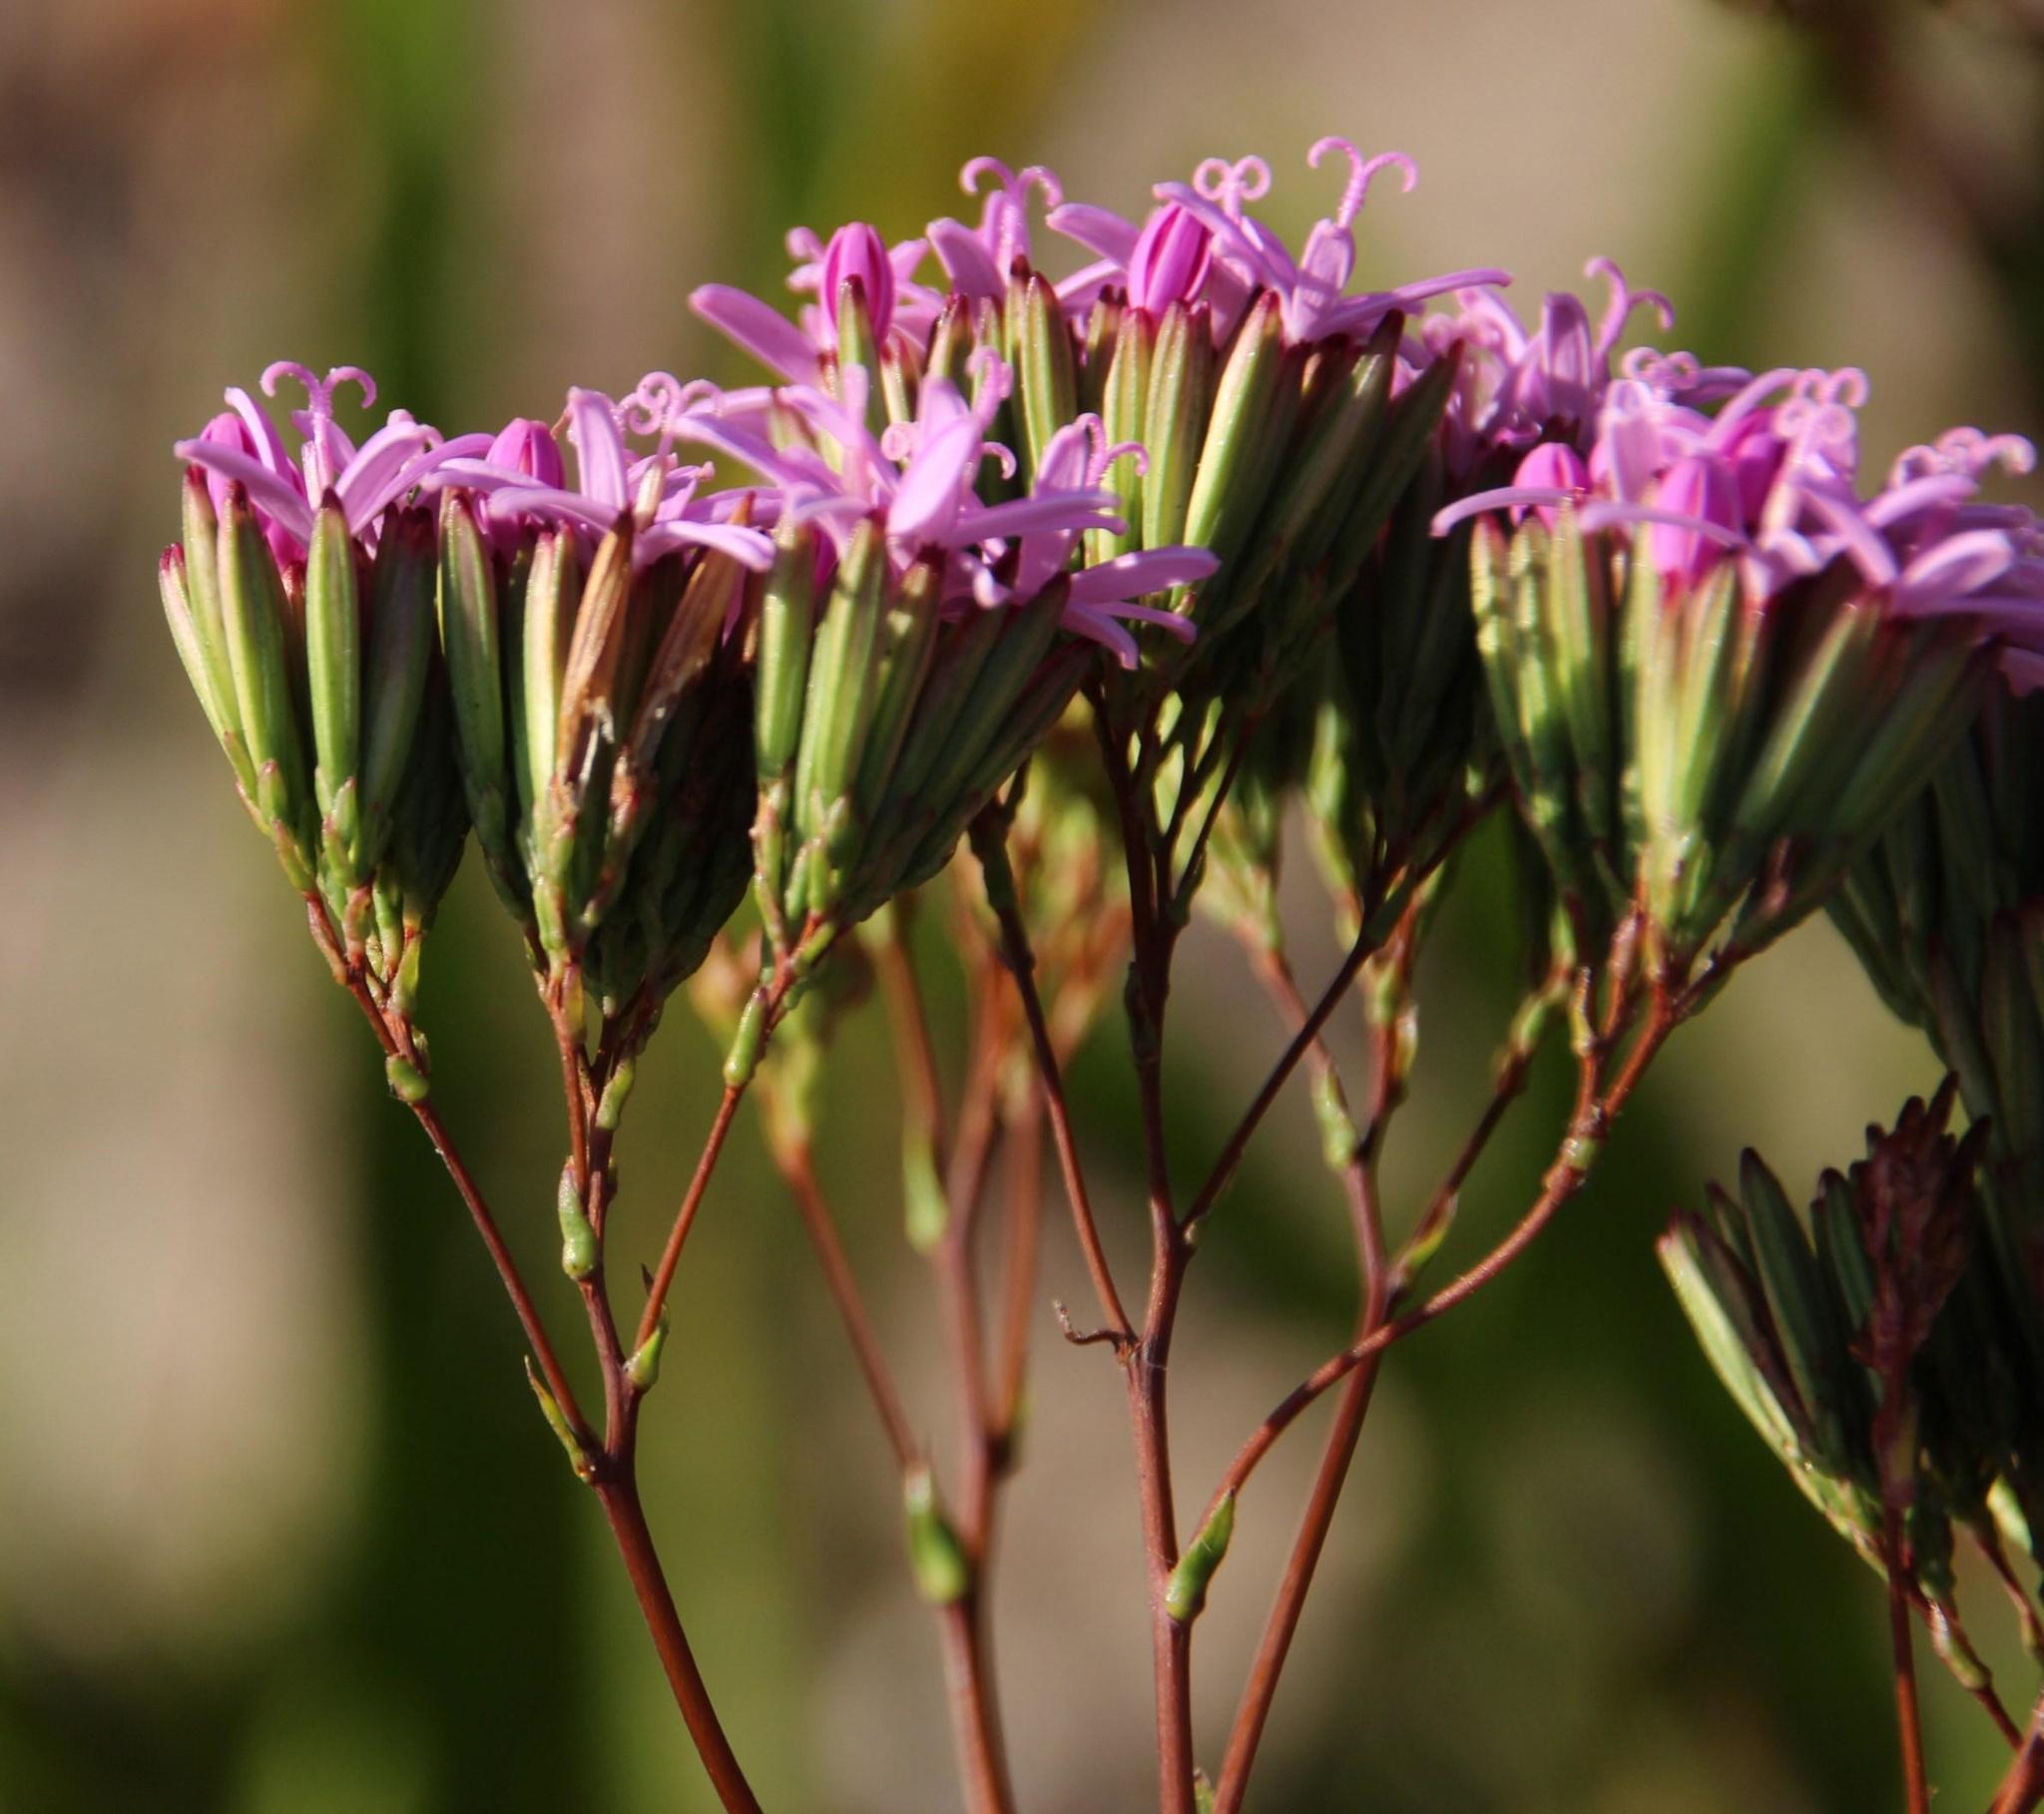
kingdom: Plantae
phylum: Tracheophyta
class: Magnoliopsida
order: Asterales
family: Asteraceae
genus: Corymbium
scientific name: Corymbium glabrum
